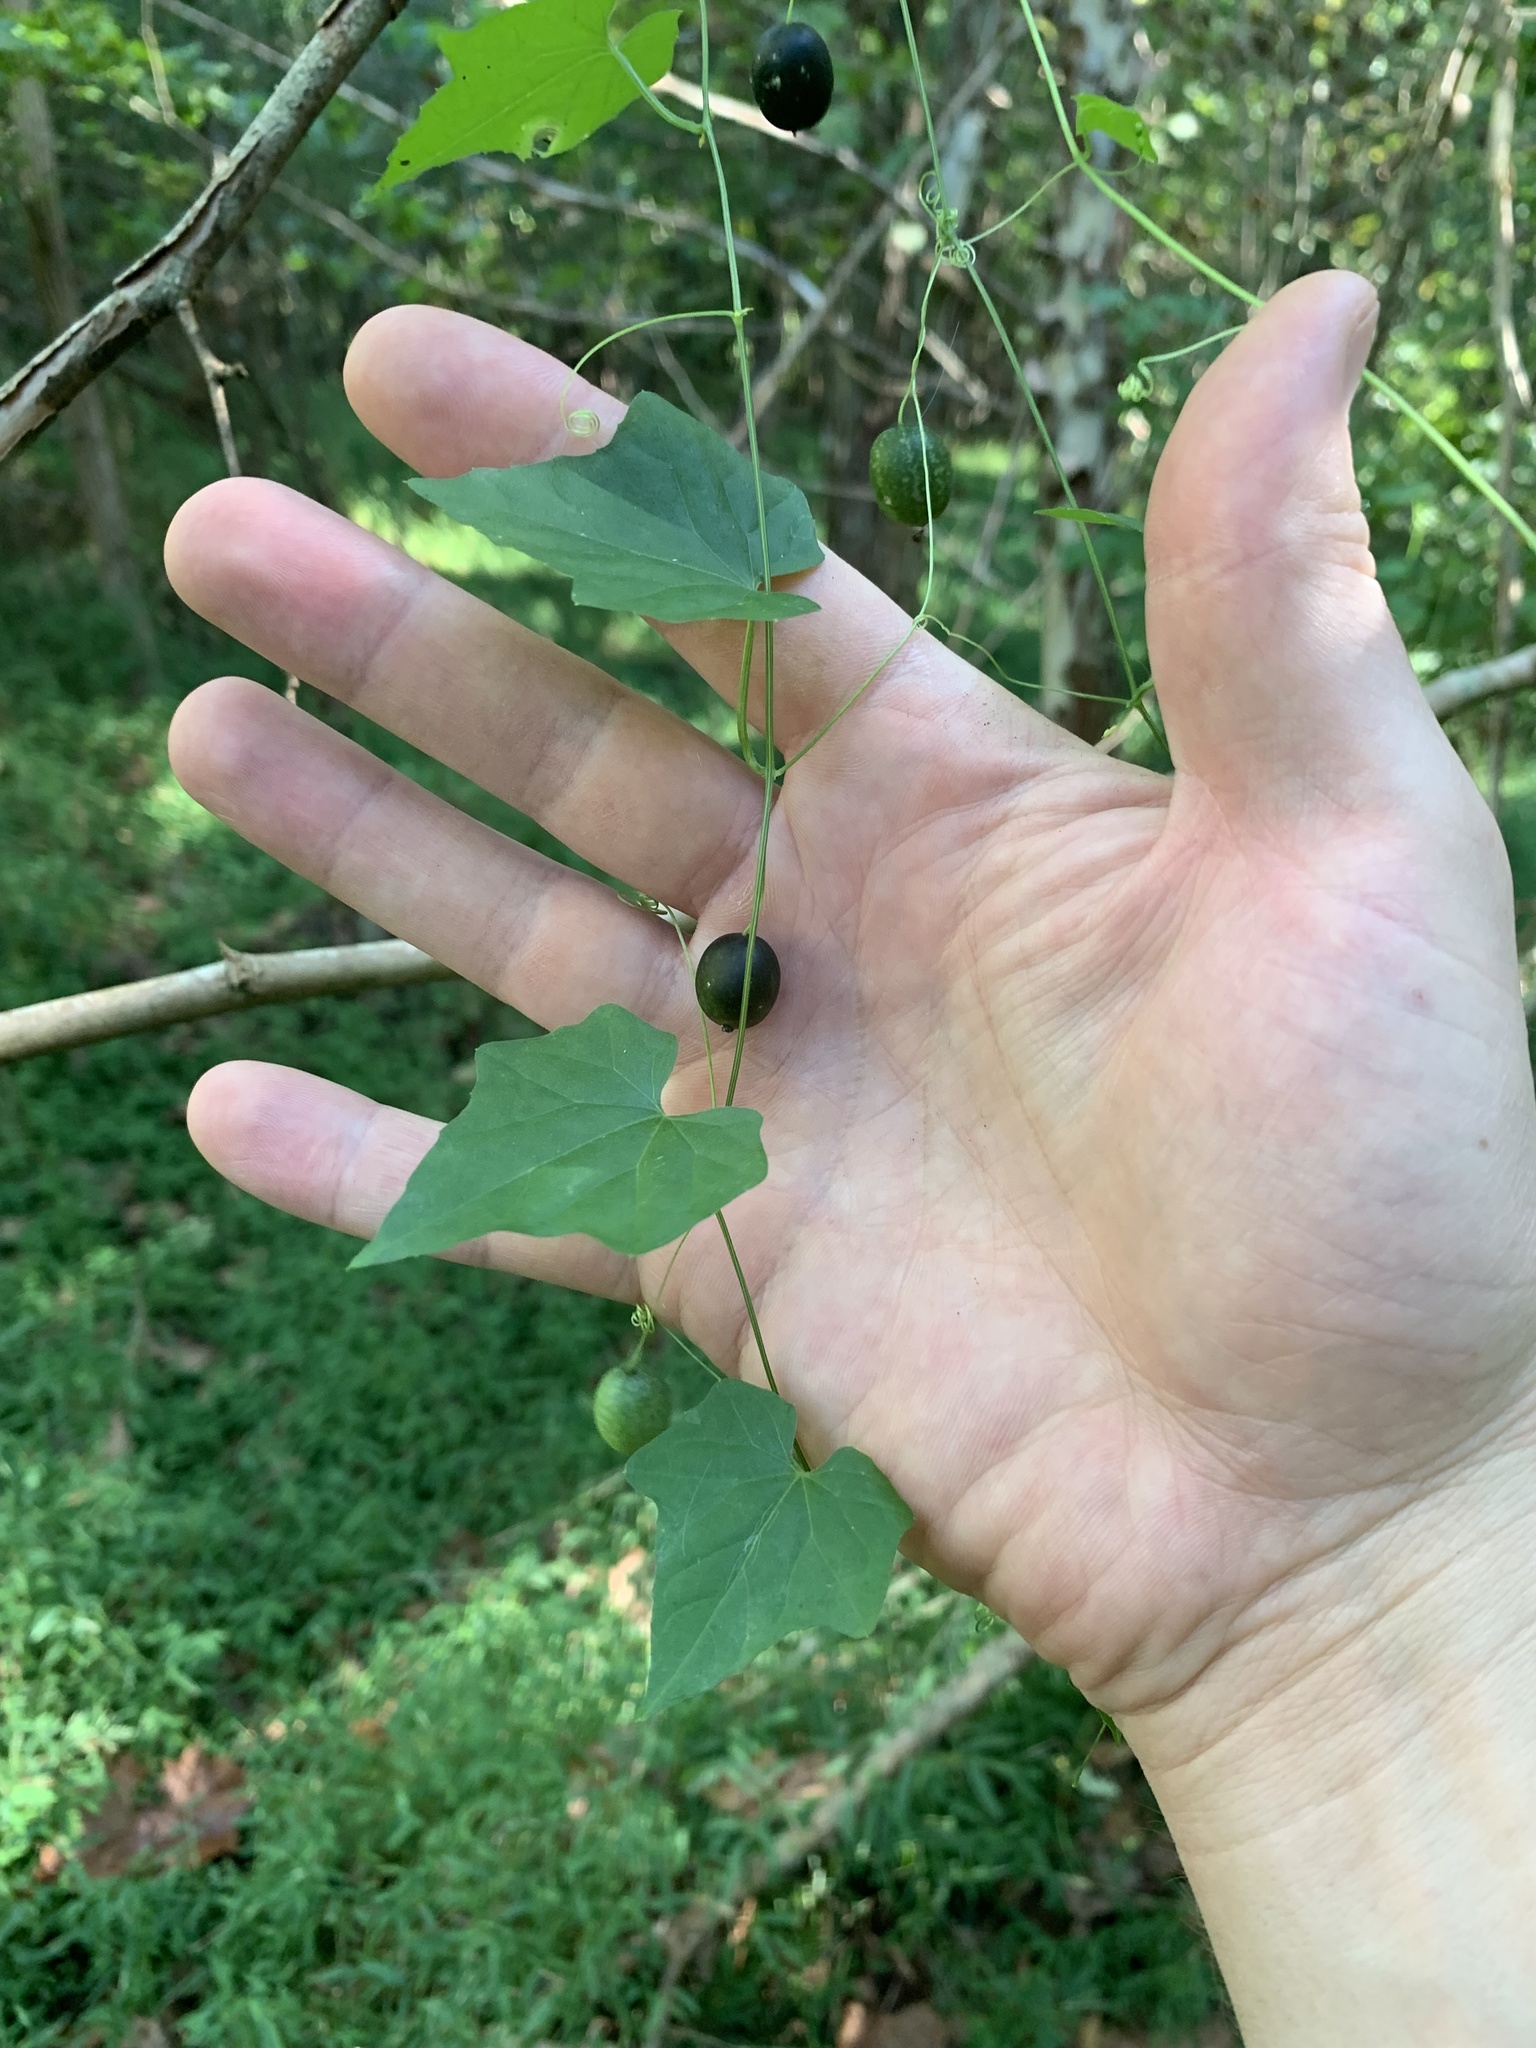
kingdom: Plantae
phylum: Tracheophyta
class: Magnoliopsida
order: Cucurbitales
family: Cucurbitaceae
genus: Melothria
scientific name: Melothria pendula
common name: Creeping-cucumber
